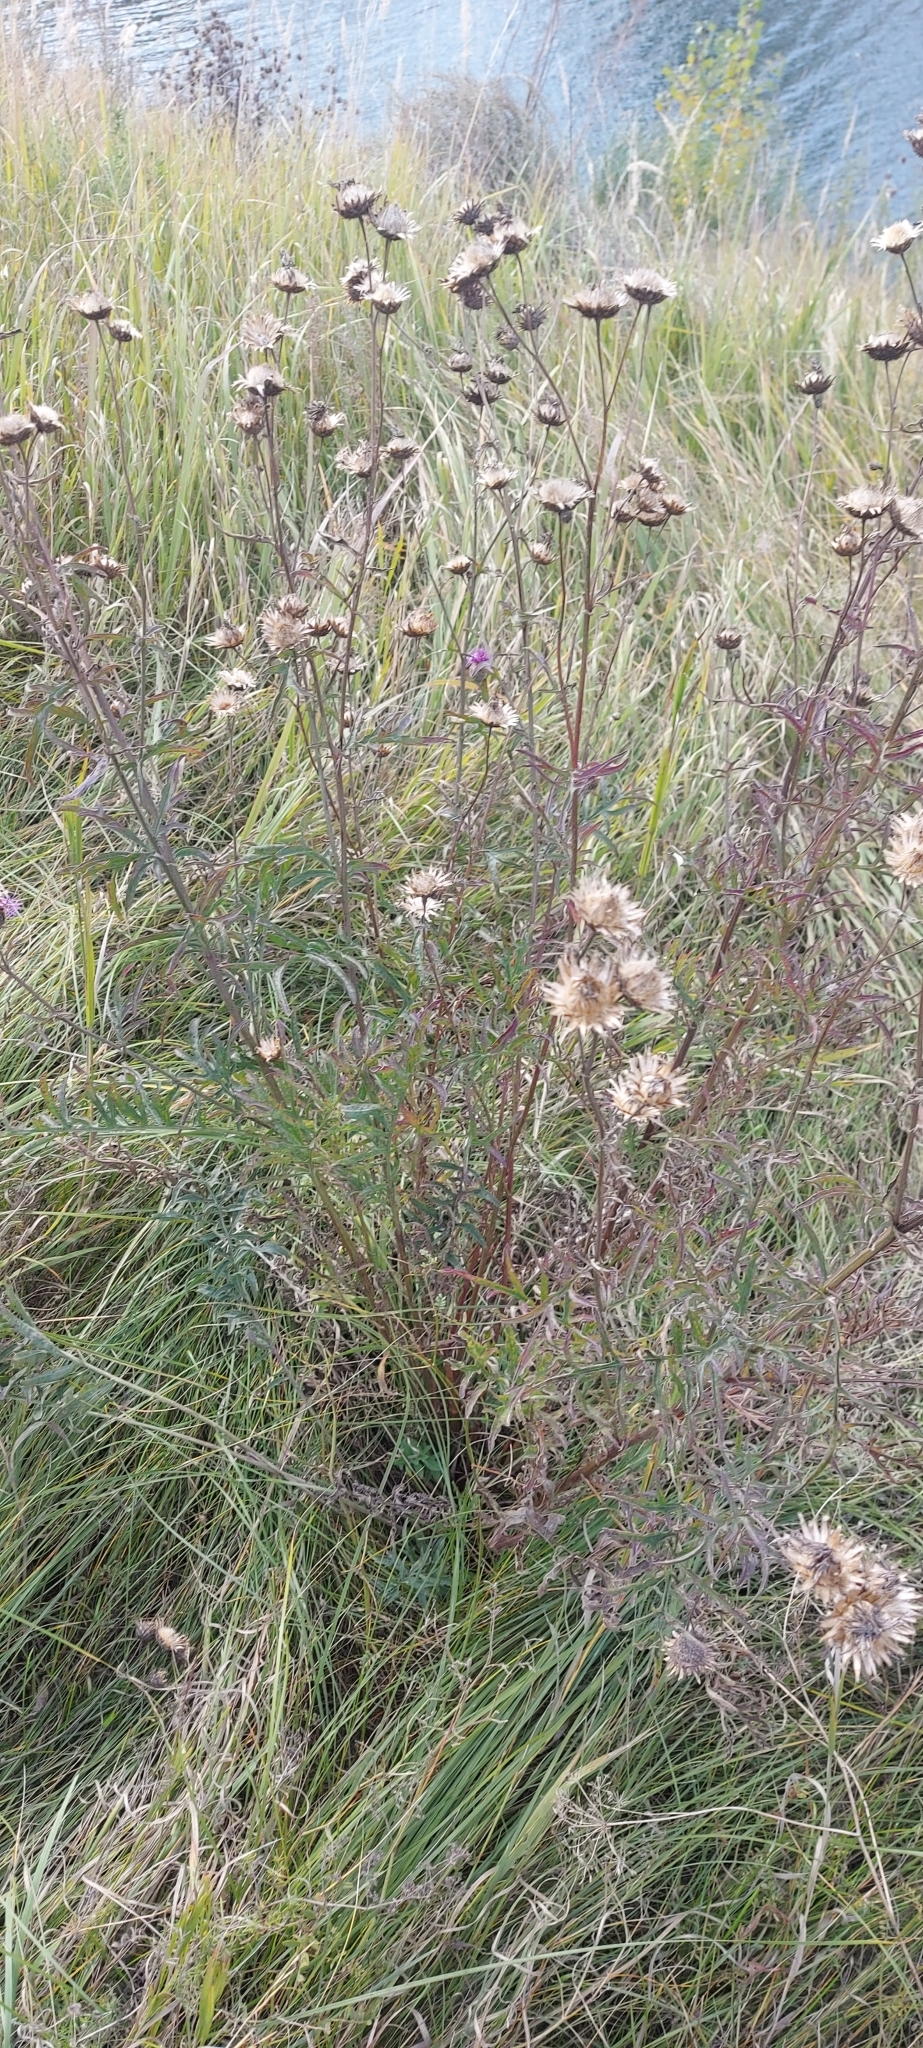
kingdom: Plantae
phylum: Tracheophyta
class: Magnoliopsida
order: Asterales
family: Asteraceae
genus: Centaurea
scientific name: Centaurea scabiosa
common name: Greater knapweed
